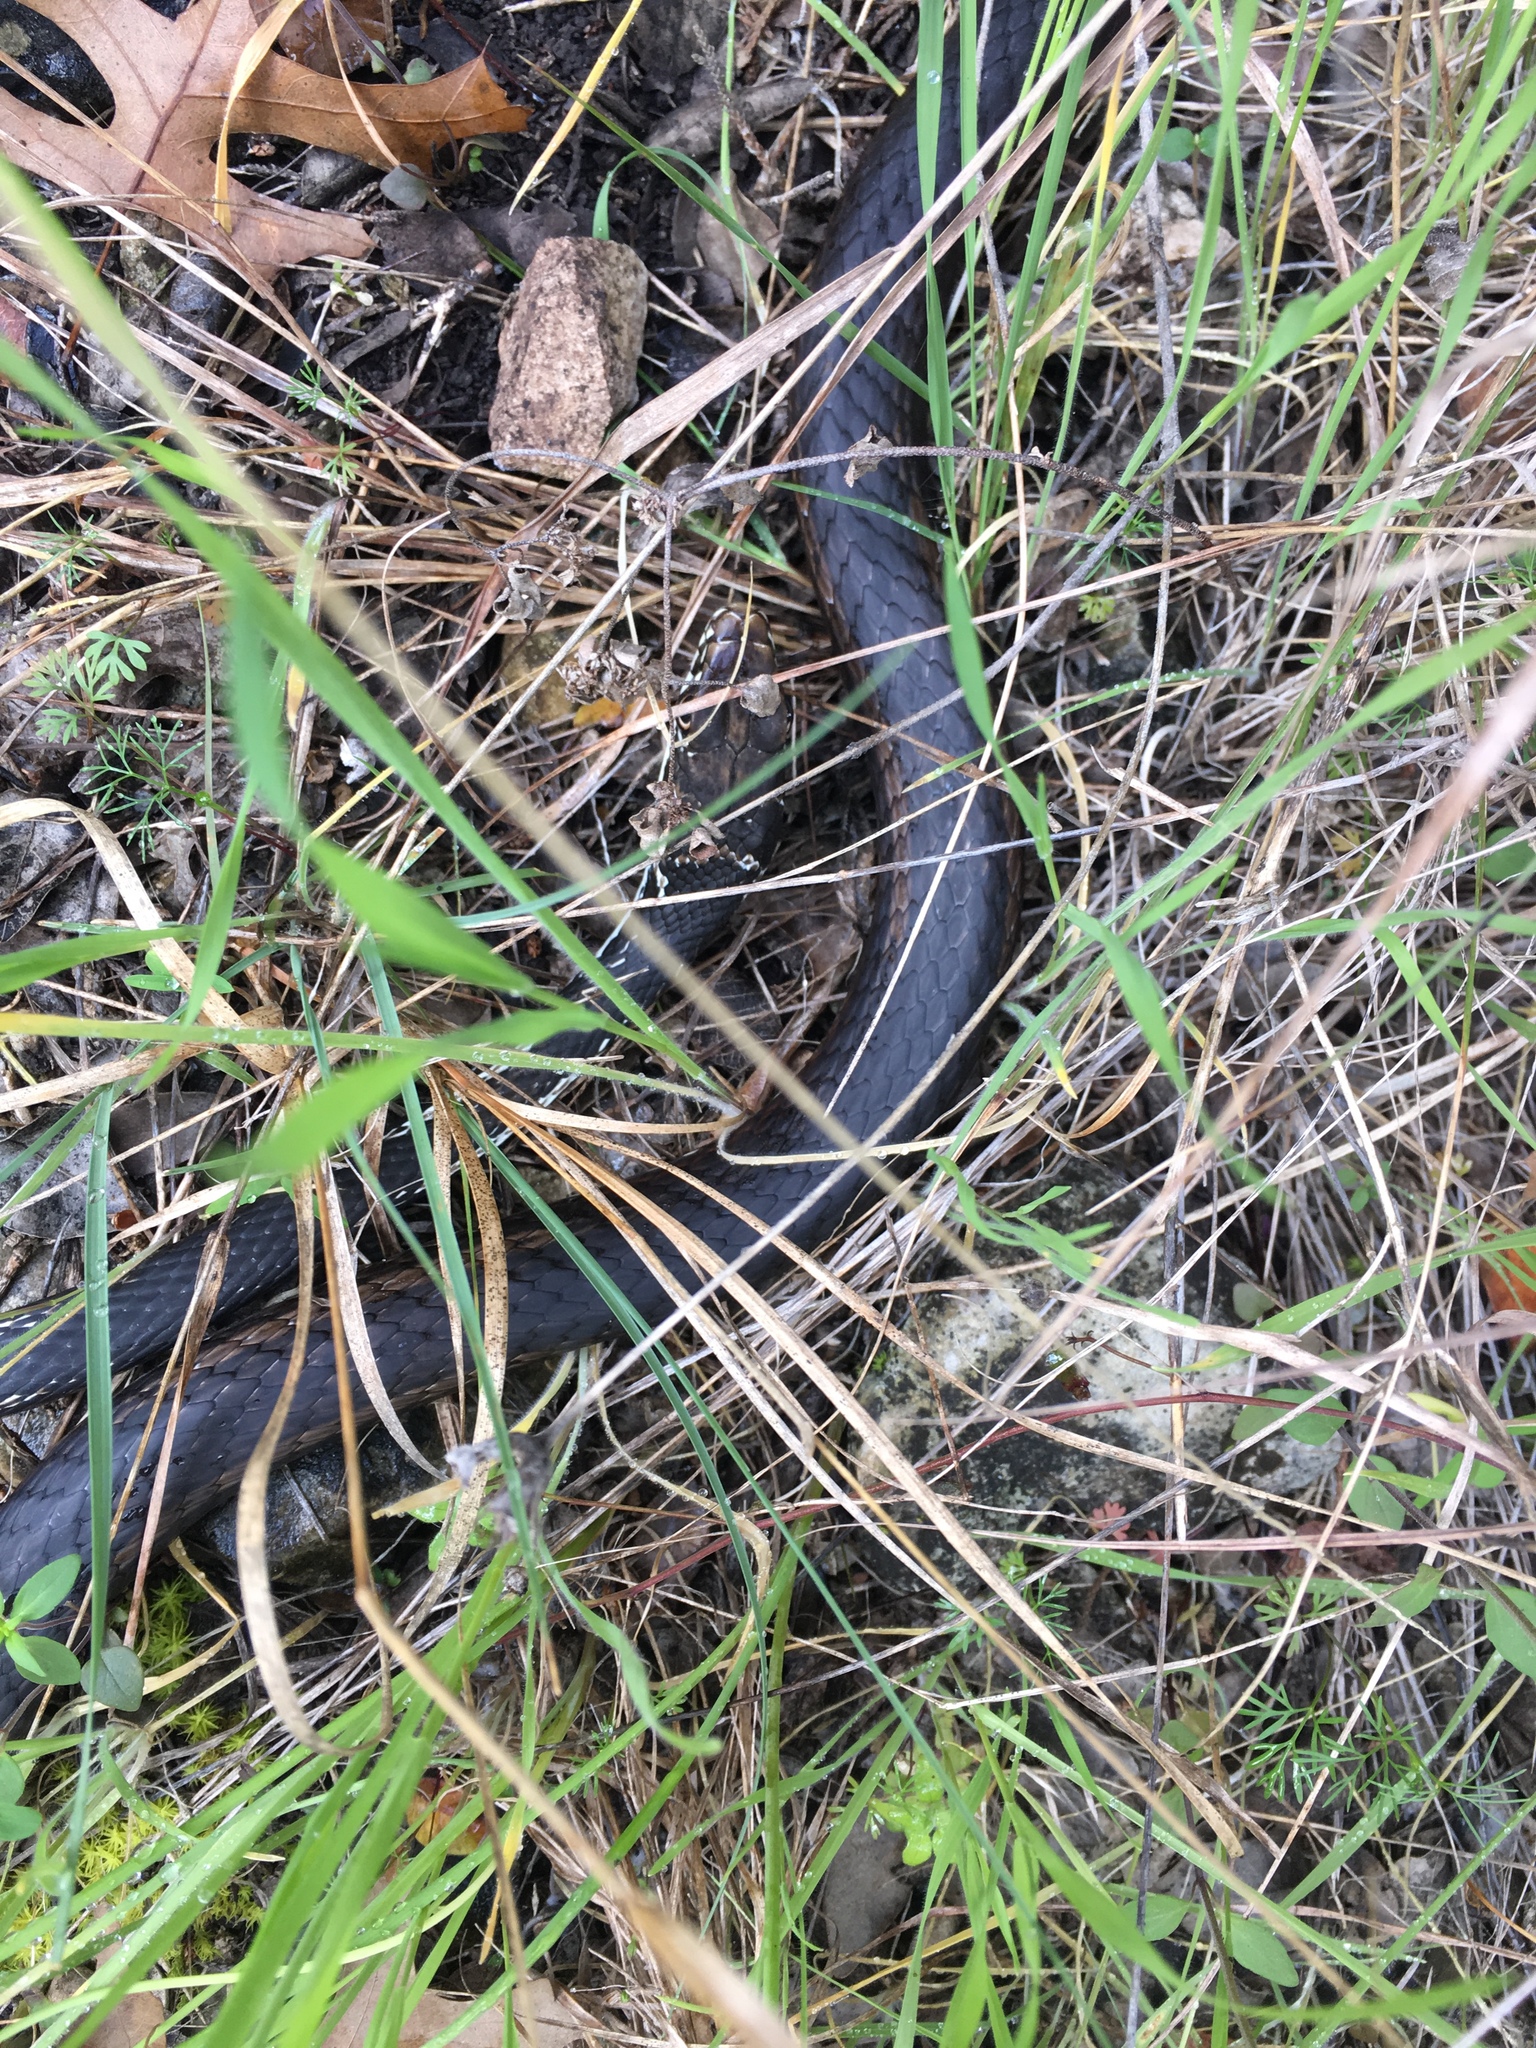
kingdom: Animalia
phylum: Chordata
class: Squamata
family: Colubridae
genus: Masticophis
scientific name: Masticophis taeniatus
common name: Striped whipsnake
